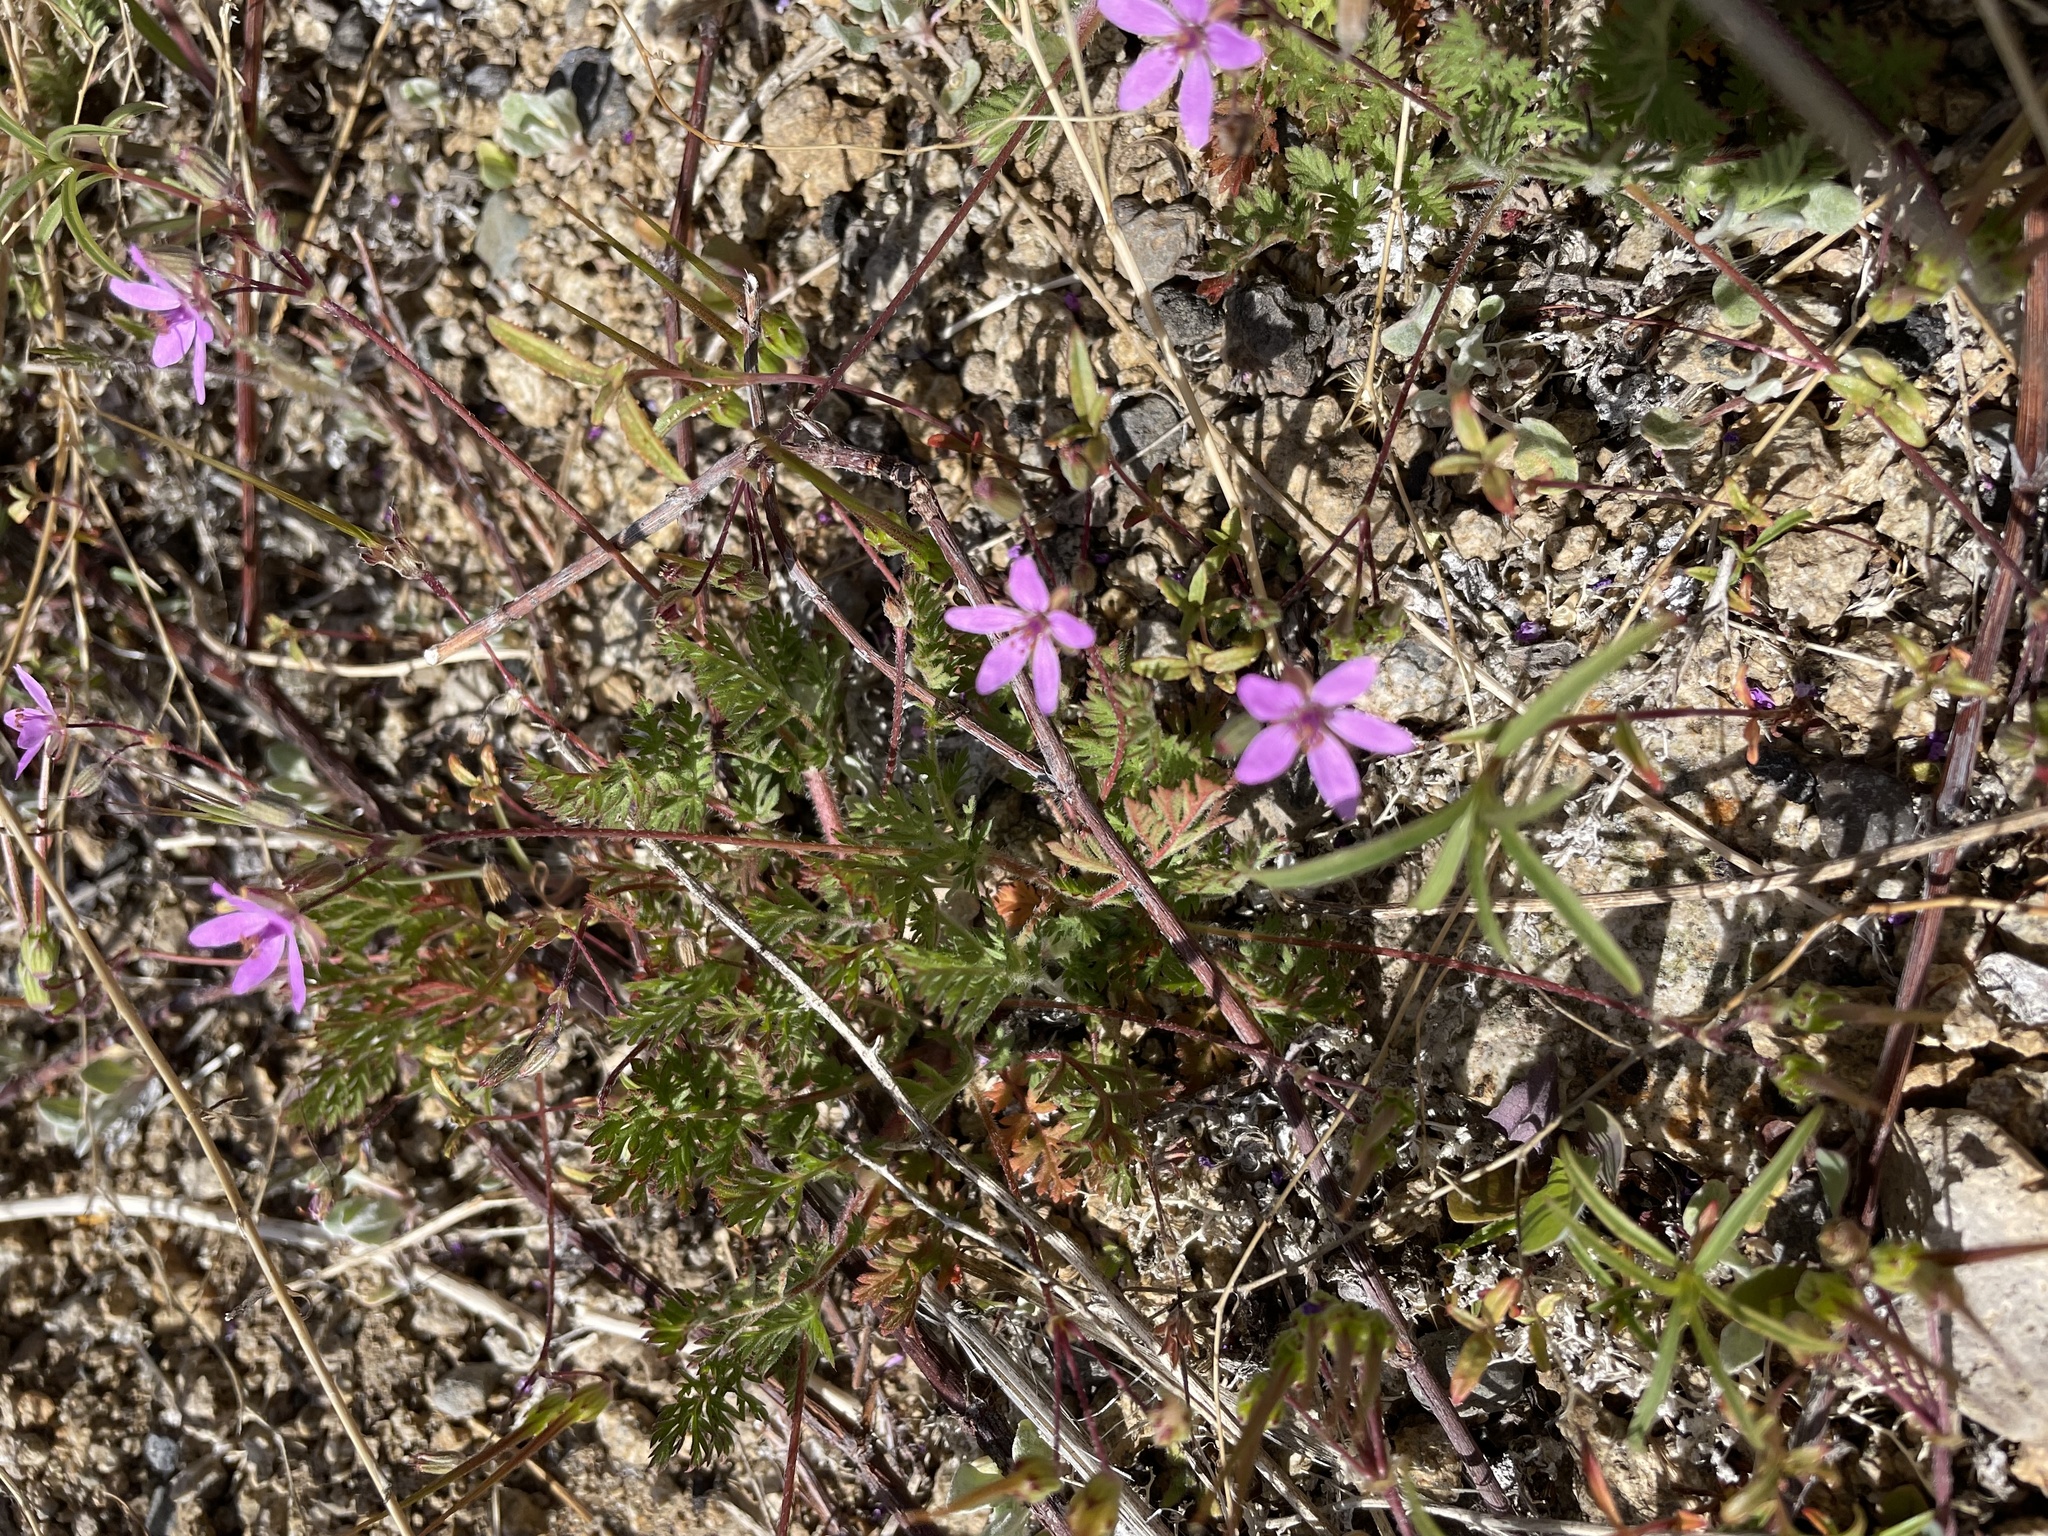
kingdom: Plantae
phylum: Tracheophyta
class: Magnoliopsida
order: Geraniales
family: Geraniaceae
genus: Erodium
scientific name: Erodium cicutarium
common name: Common stork's-bill
